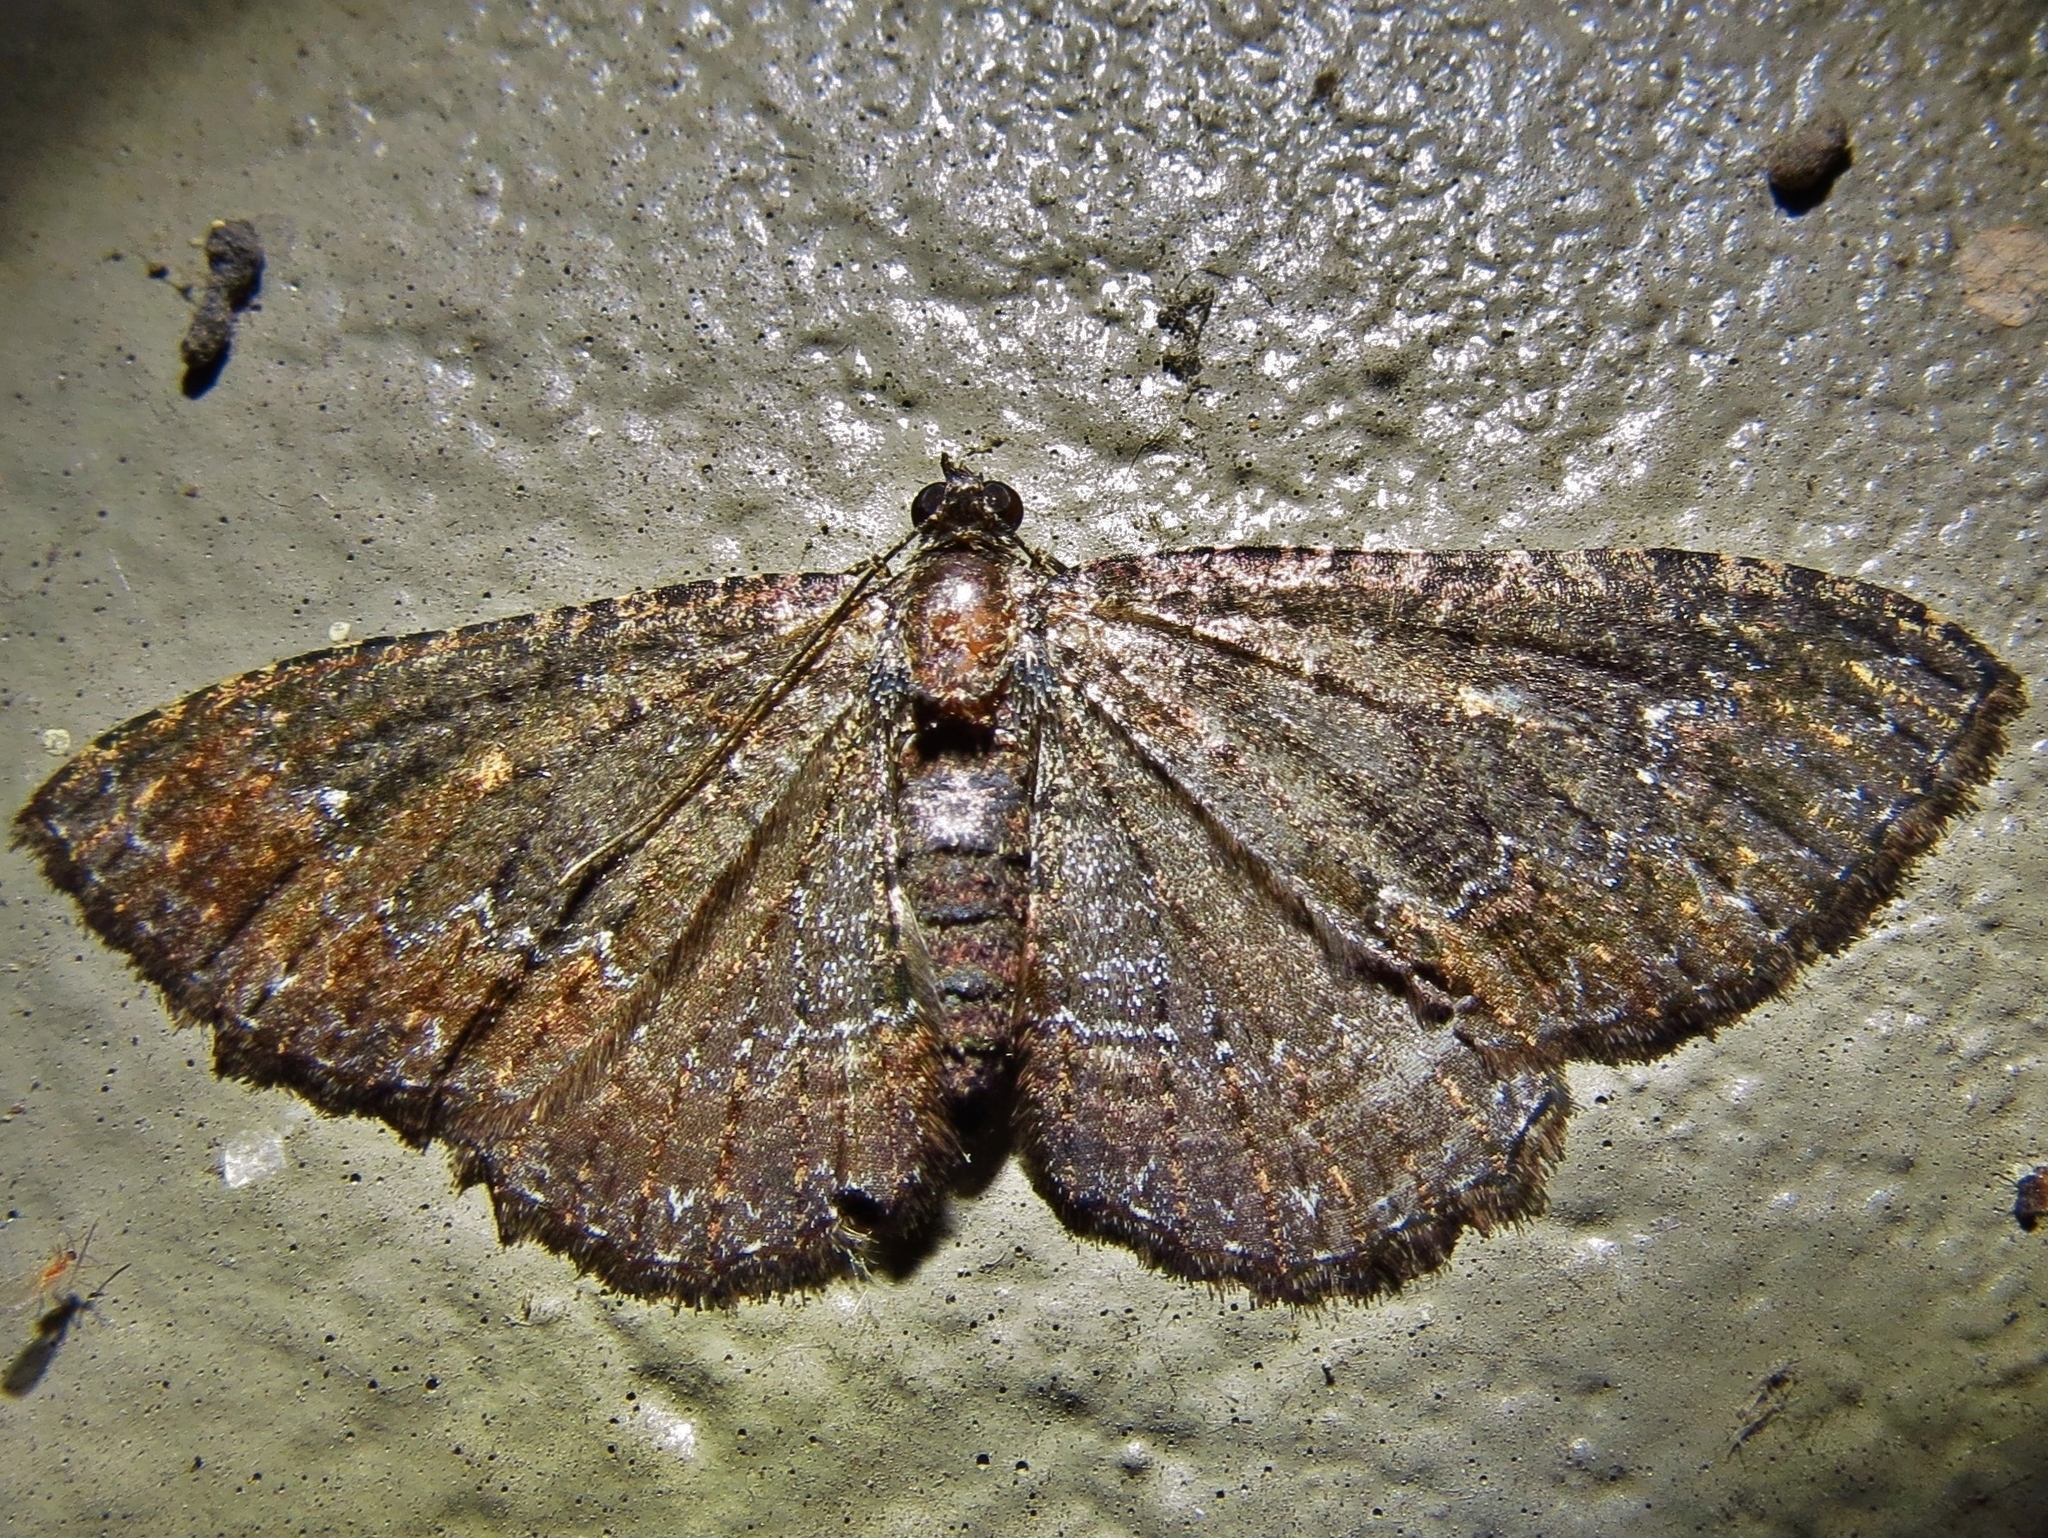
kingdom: Animalia
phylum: Arthropoda
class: Insecta
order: Lepidoptera
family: Geometridae
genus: Disclisioprocta
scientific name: Disclisioprocta stellata
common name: Somber carpet
